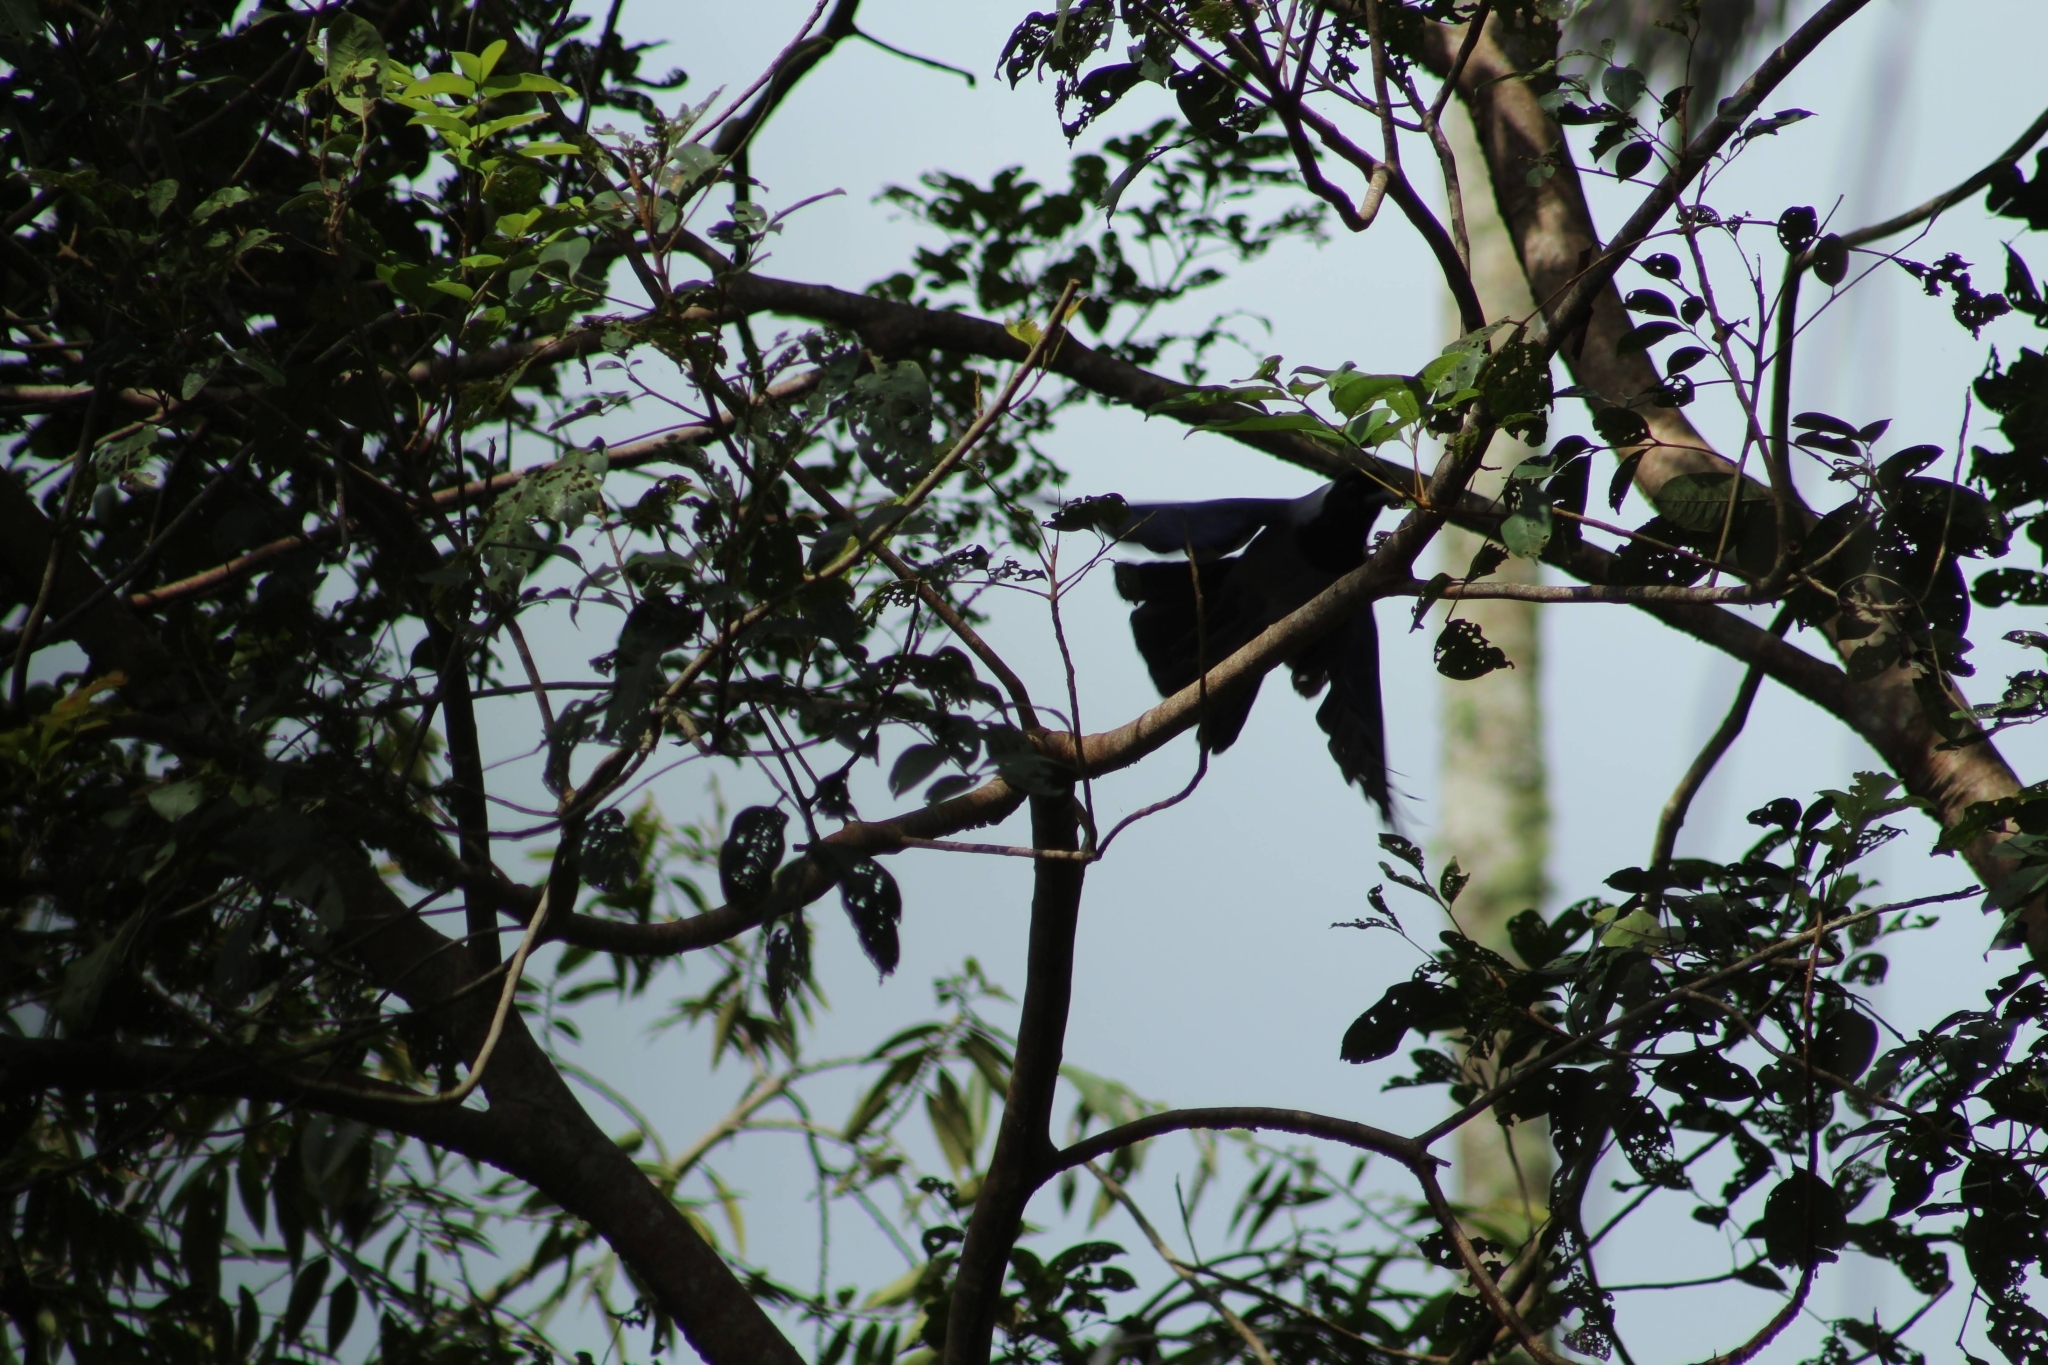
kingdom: Animalia
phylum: Chordata
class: Aves
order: Passeriformes
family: Corvidae
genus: Cyanocorax
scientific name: Cyanocorax violaceus
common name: Violaceous jay
